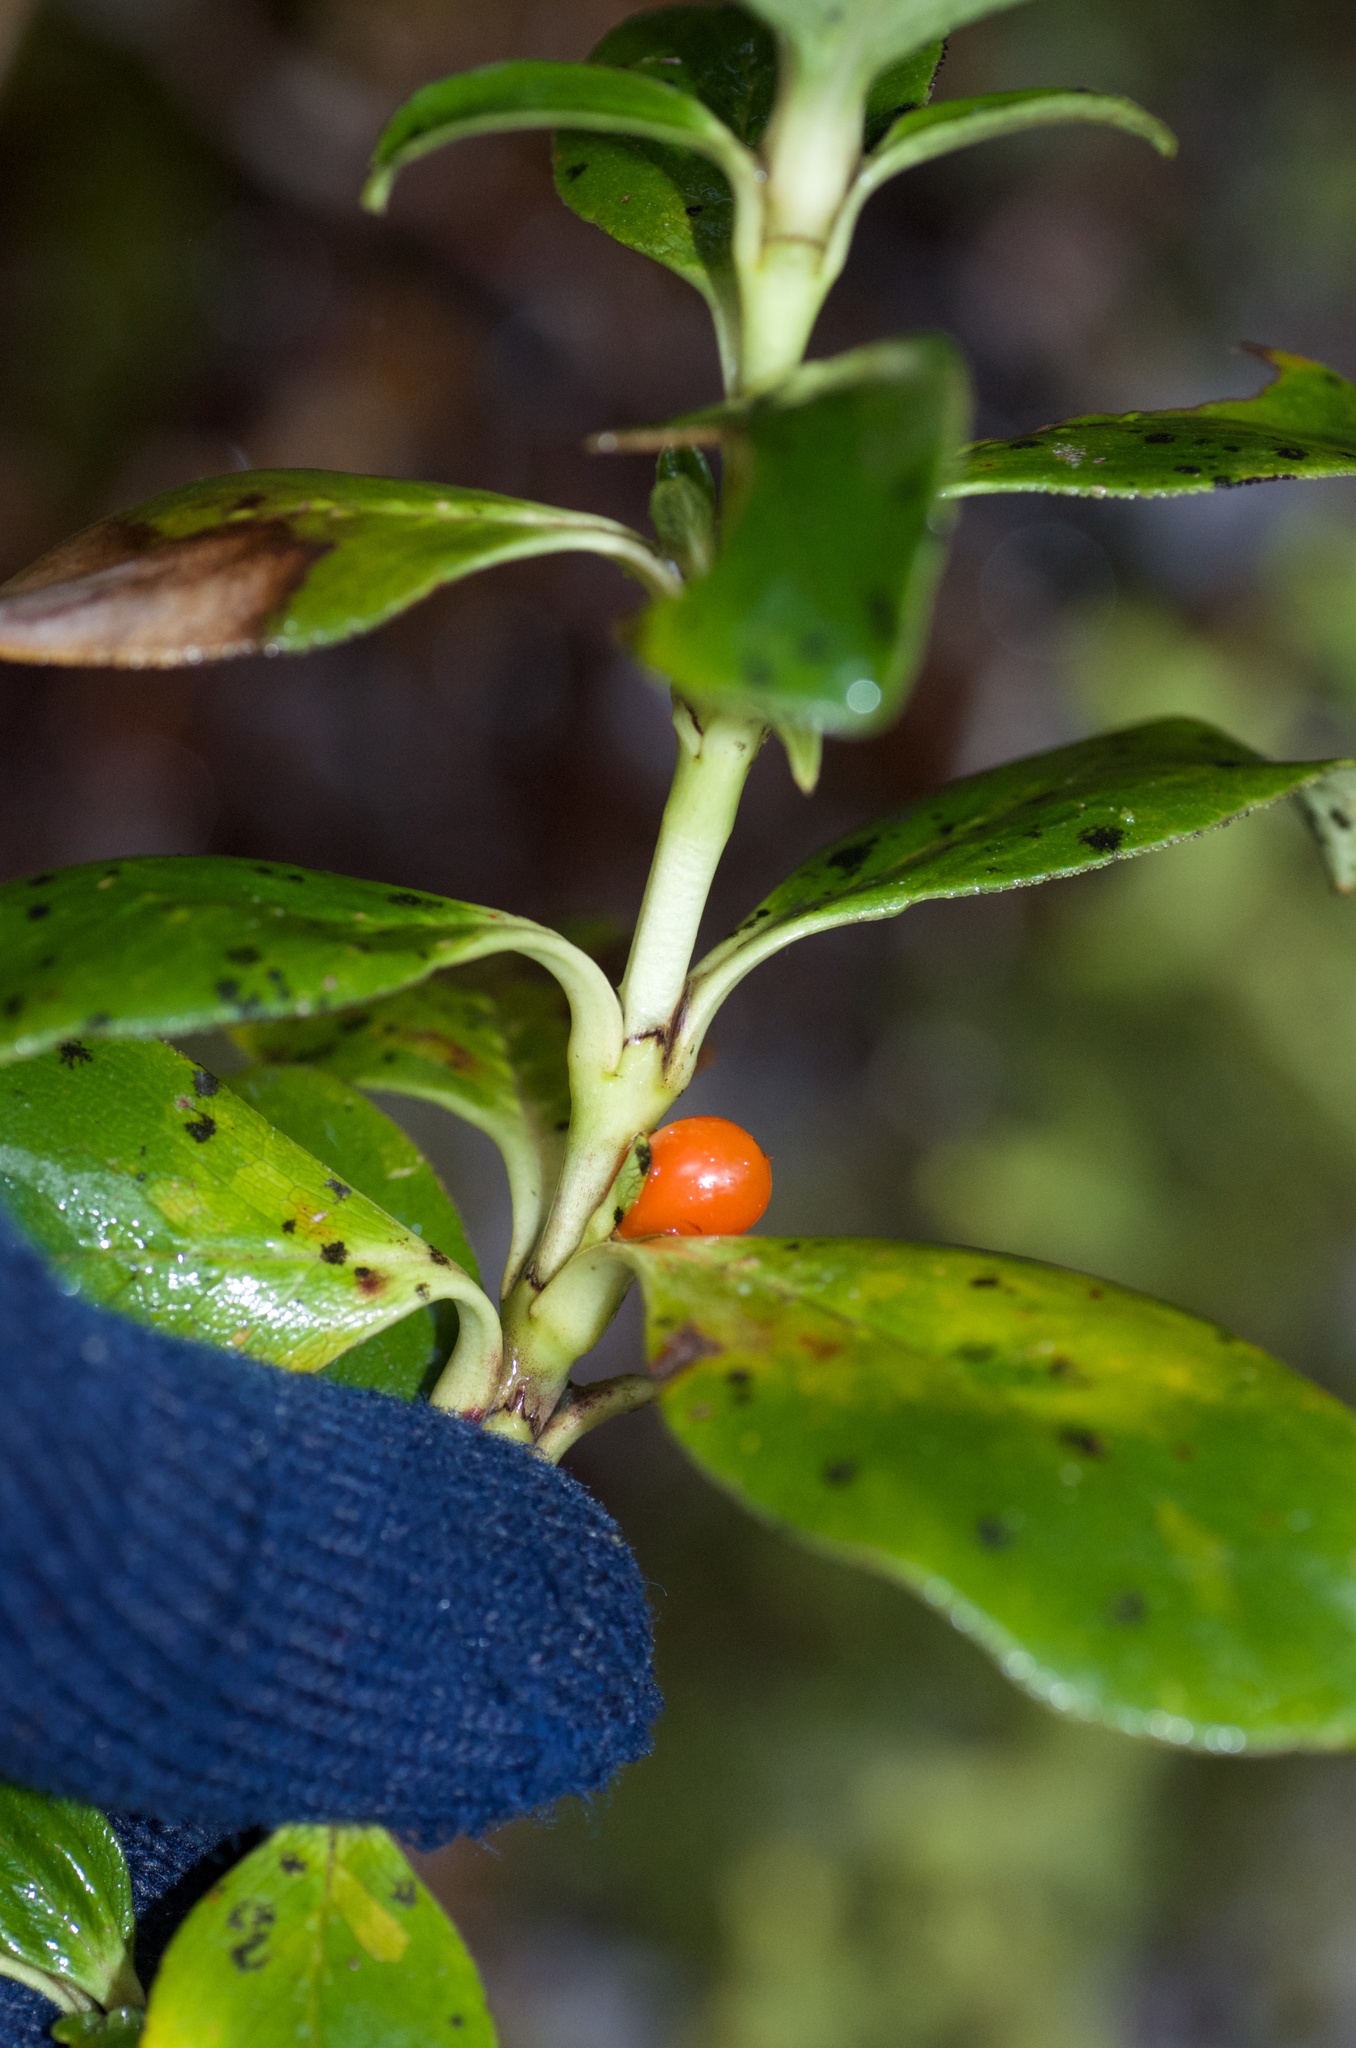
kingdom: Plantae
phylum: Tracheophyta
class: Magnoliopsida
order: Gentianales
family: Rubiaceae
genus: Coprosma
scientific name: Coprosma serrulata
